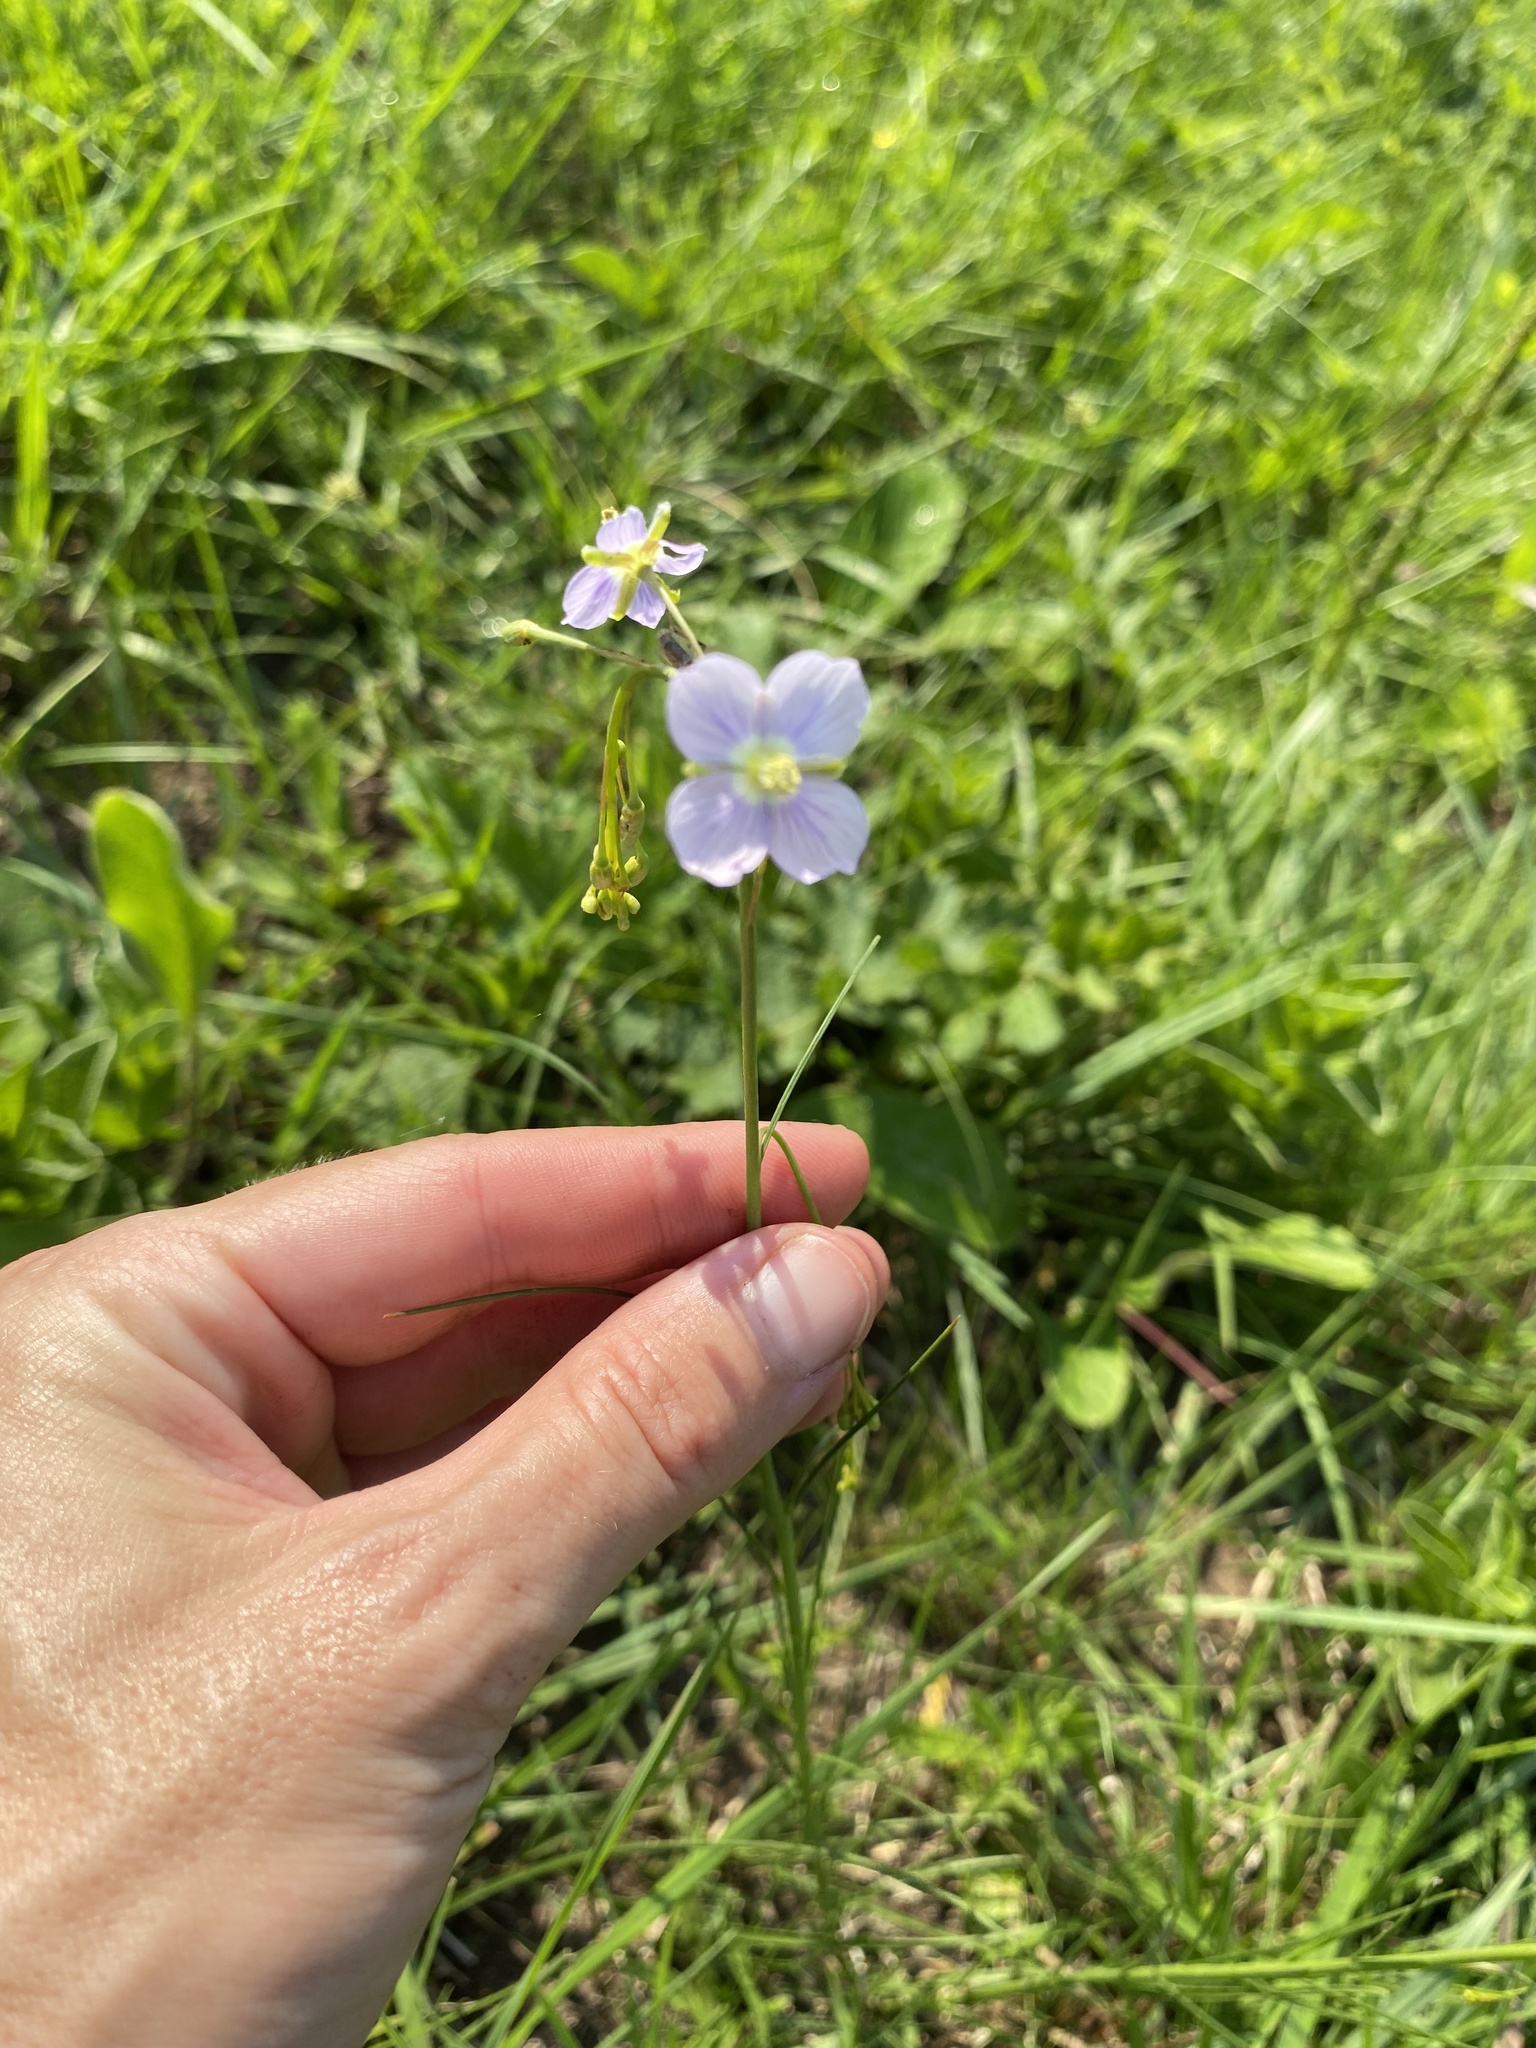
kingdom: Plantae
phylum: Tracheophyta
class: Magnoliopsida
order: Brassicales
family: Brassicaceae
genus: Heliophila
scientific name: Heliophila rigidiuscula
